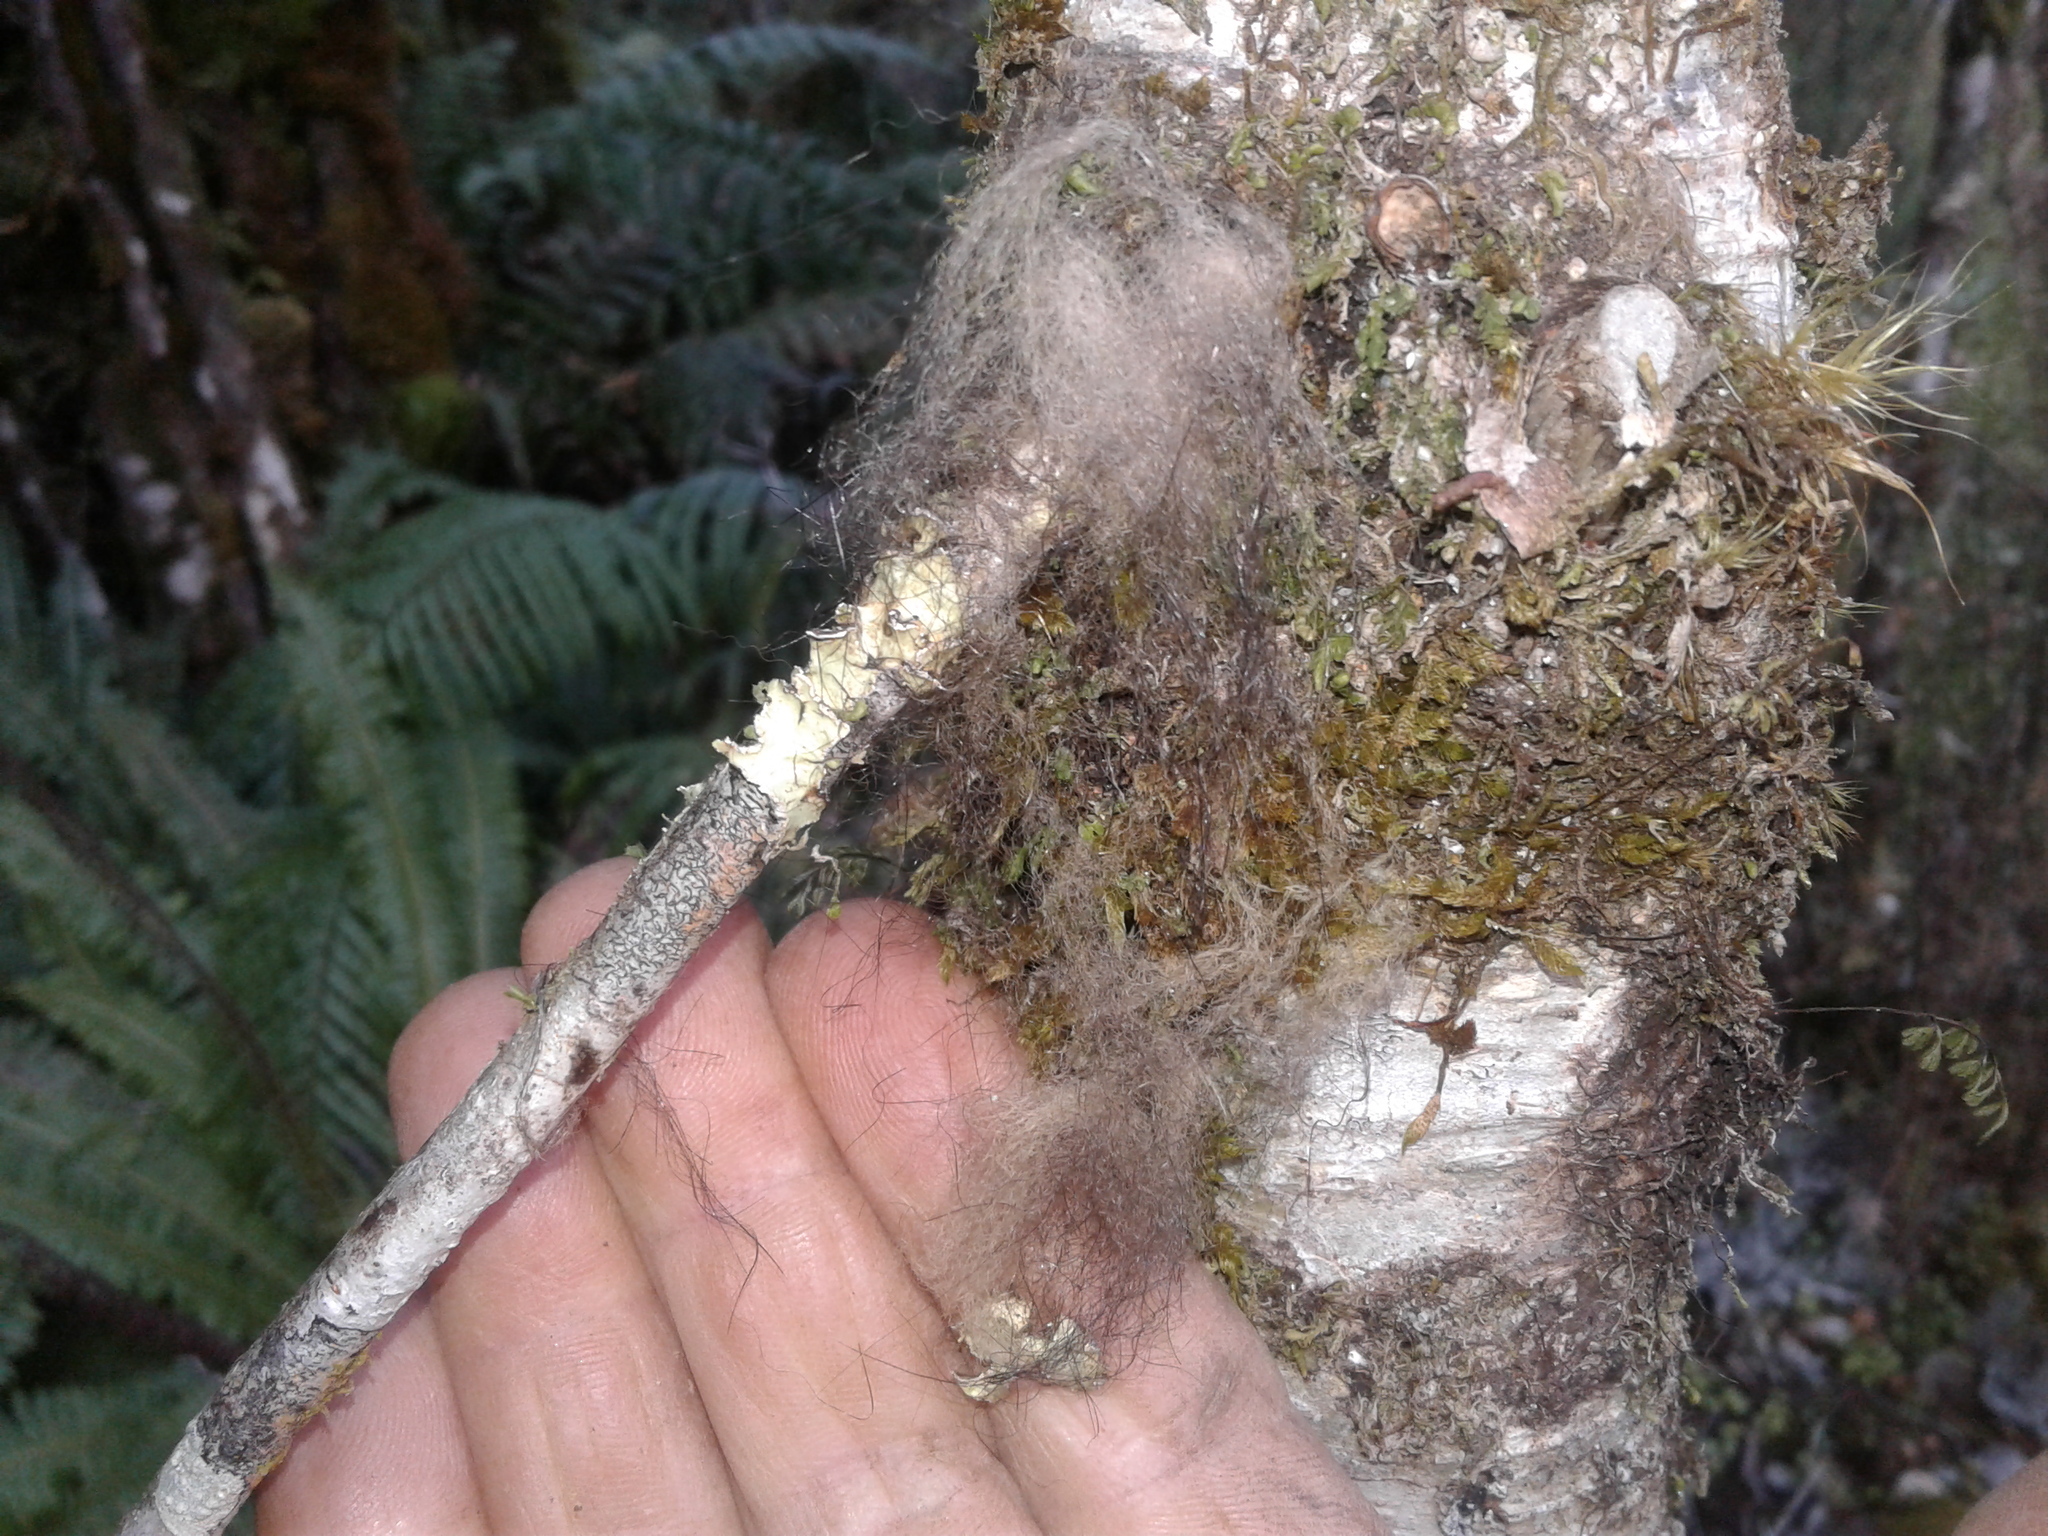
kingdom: Animalia
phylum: Chordata
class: Mammalia
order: Diprotodontia
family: Phalangeridae
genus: Trichosurus
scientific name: Trichosurus vulpecula
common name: Common brushtail
